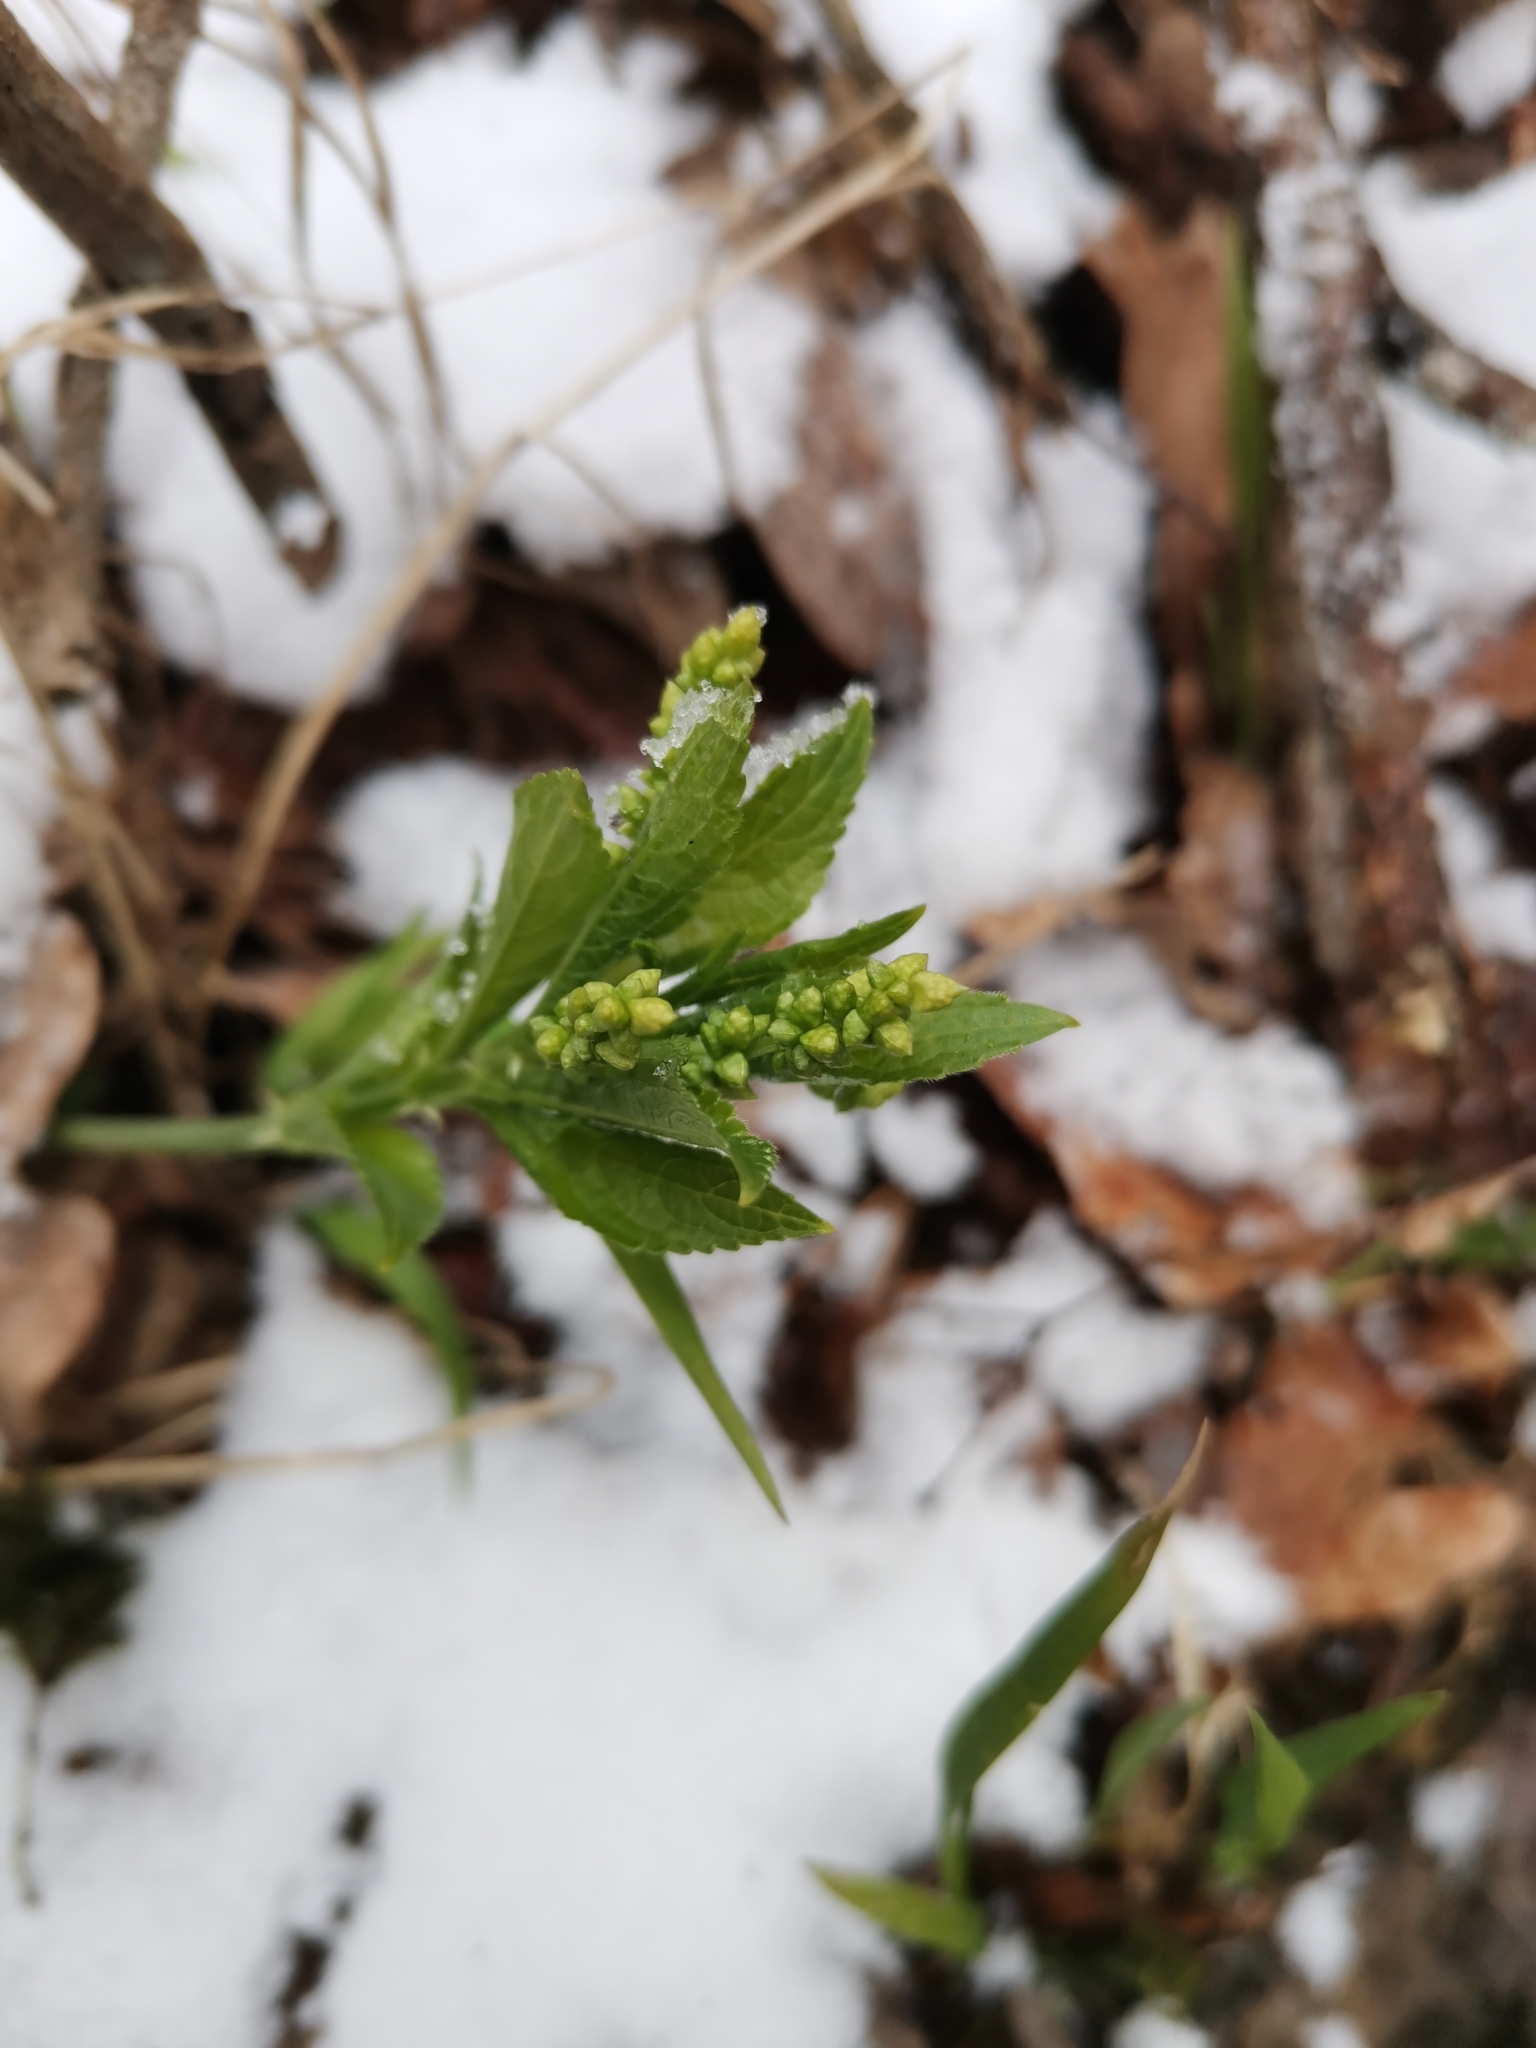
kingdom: Plantae
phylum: Tracheophyta
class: Magnoliopsida
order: Malpighiales
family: Euphorbiaceae
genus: Mercurialis
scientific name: Mercurialis perennis
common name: Dog mercury
